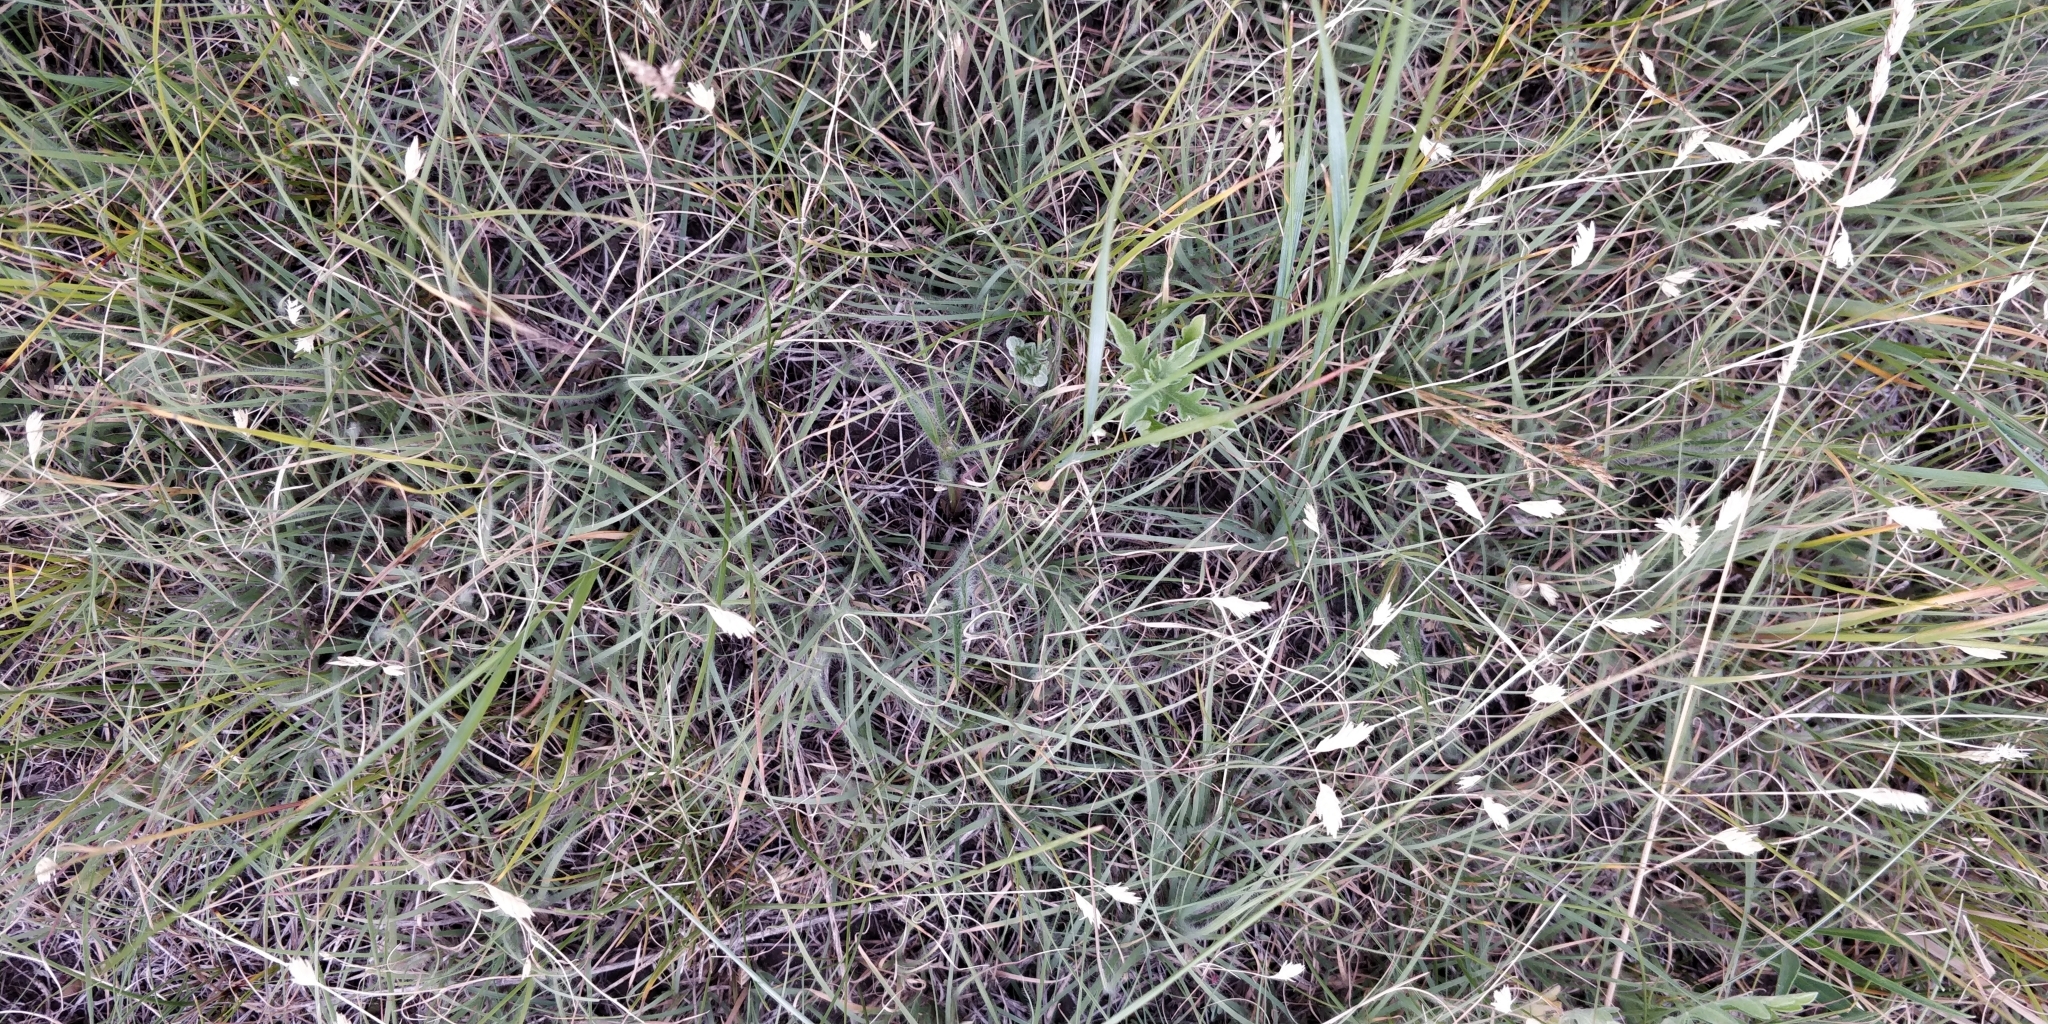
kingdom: Plantae
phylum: Tracheophyta
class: Liliopsida
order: Poales
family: Poaceae
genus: Bouteloua
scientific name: Bouteloua dactyloides
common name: Buffalo grass
